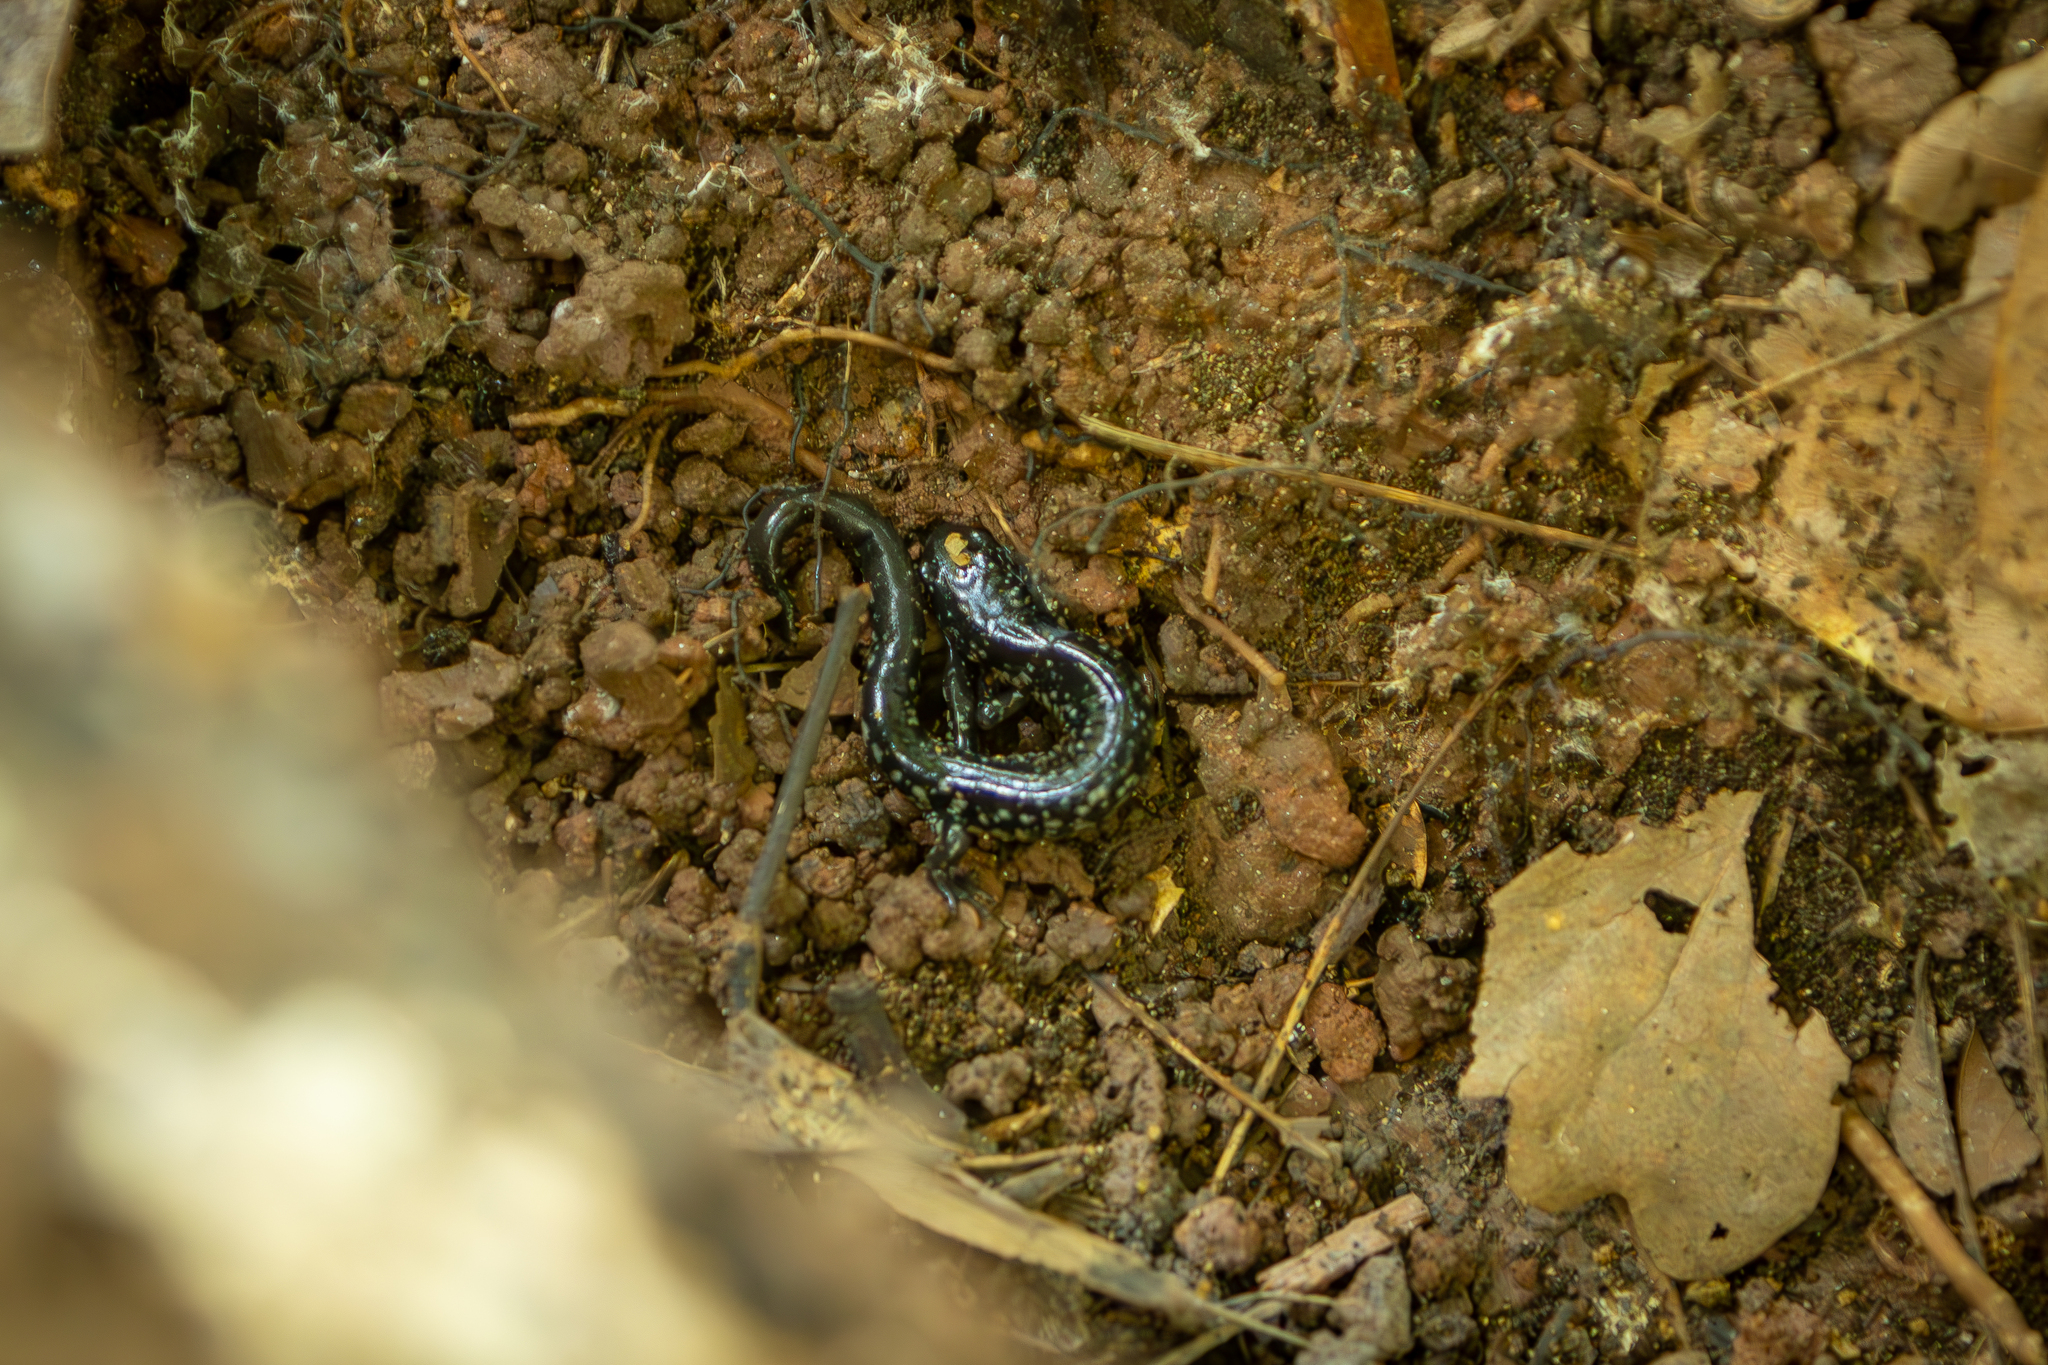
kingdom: Animalia
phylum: Chordata
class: Amphibia
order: Caudata
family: Plethodontidae
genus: Plethodon
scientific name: Plethodon glutinosus
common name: Northern slimy salamander
